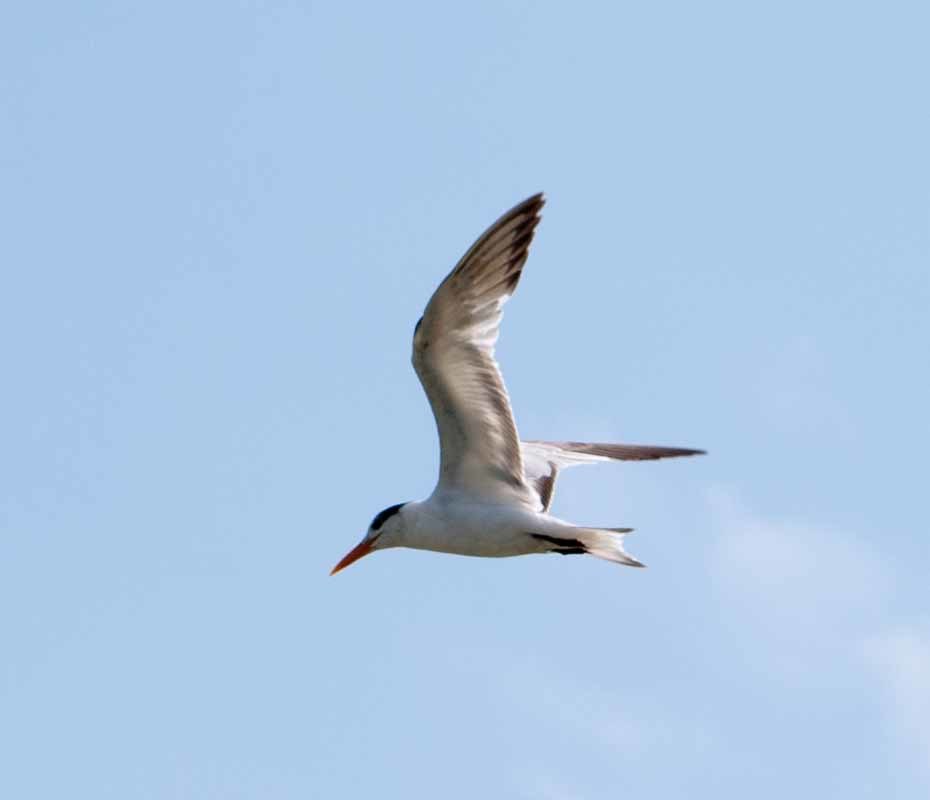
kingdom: Animalia
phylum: Chordata
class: Aves
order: Charadriiformes
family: Laridae
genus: Thalasseus
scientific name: Thalasseus maximus
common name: Royal tern
